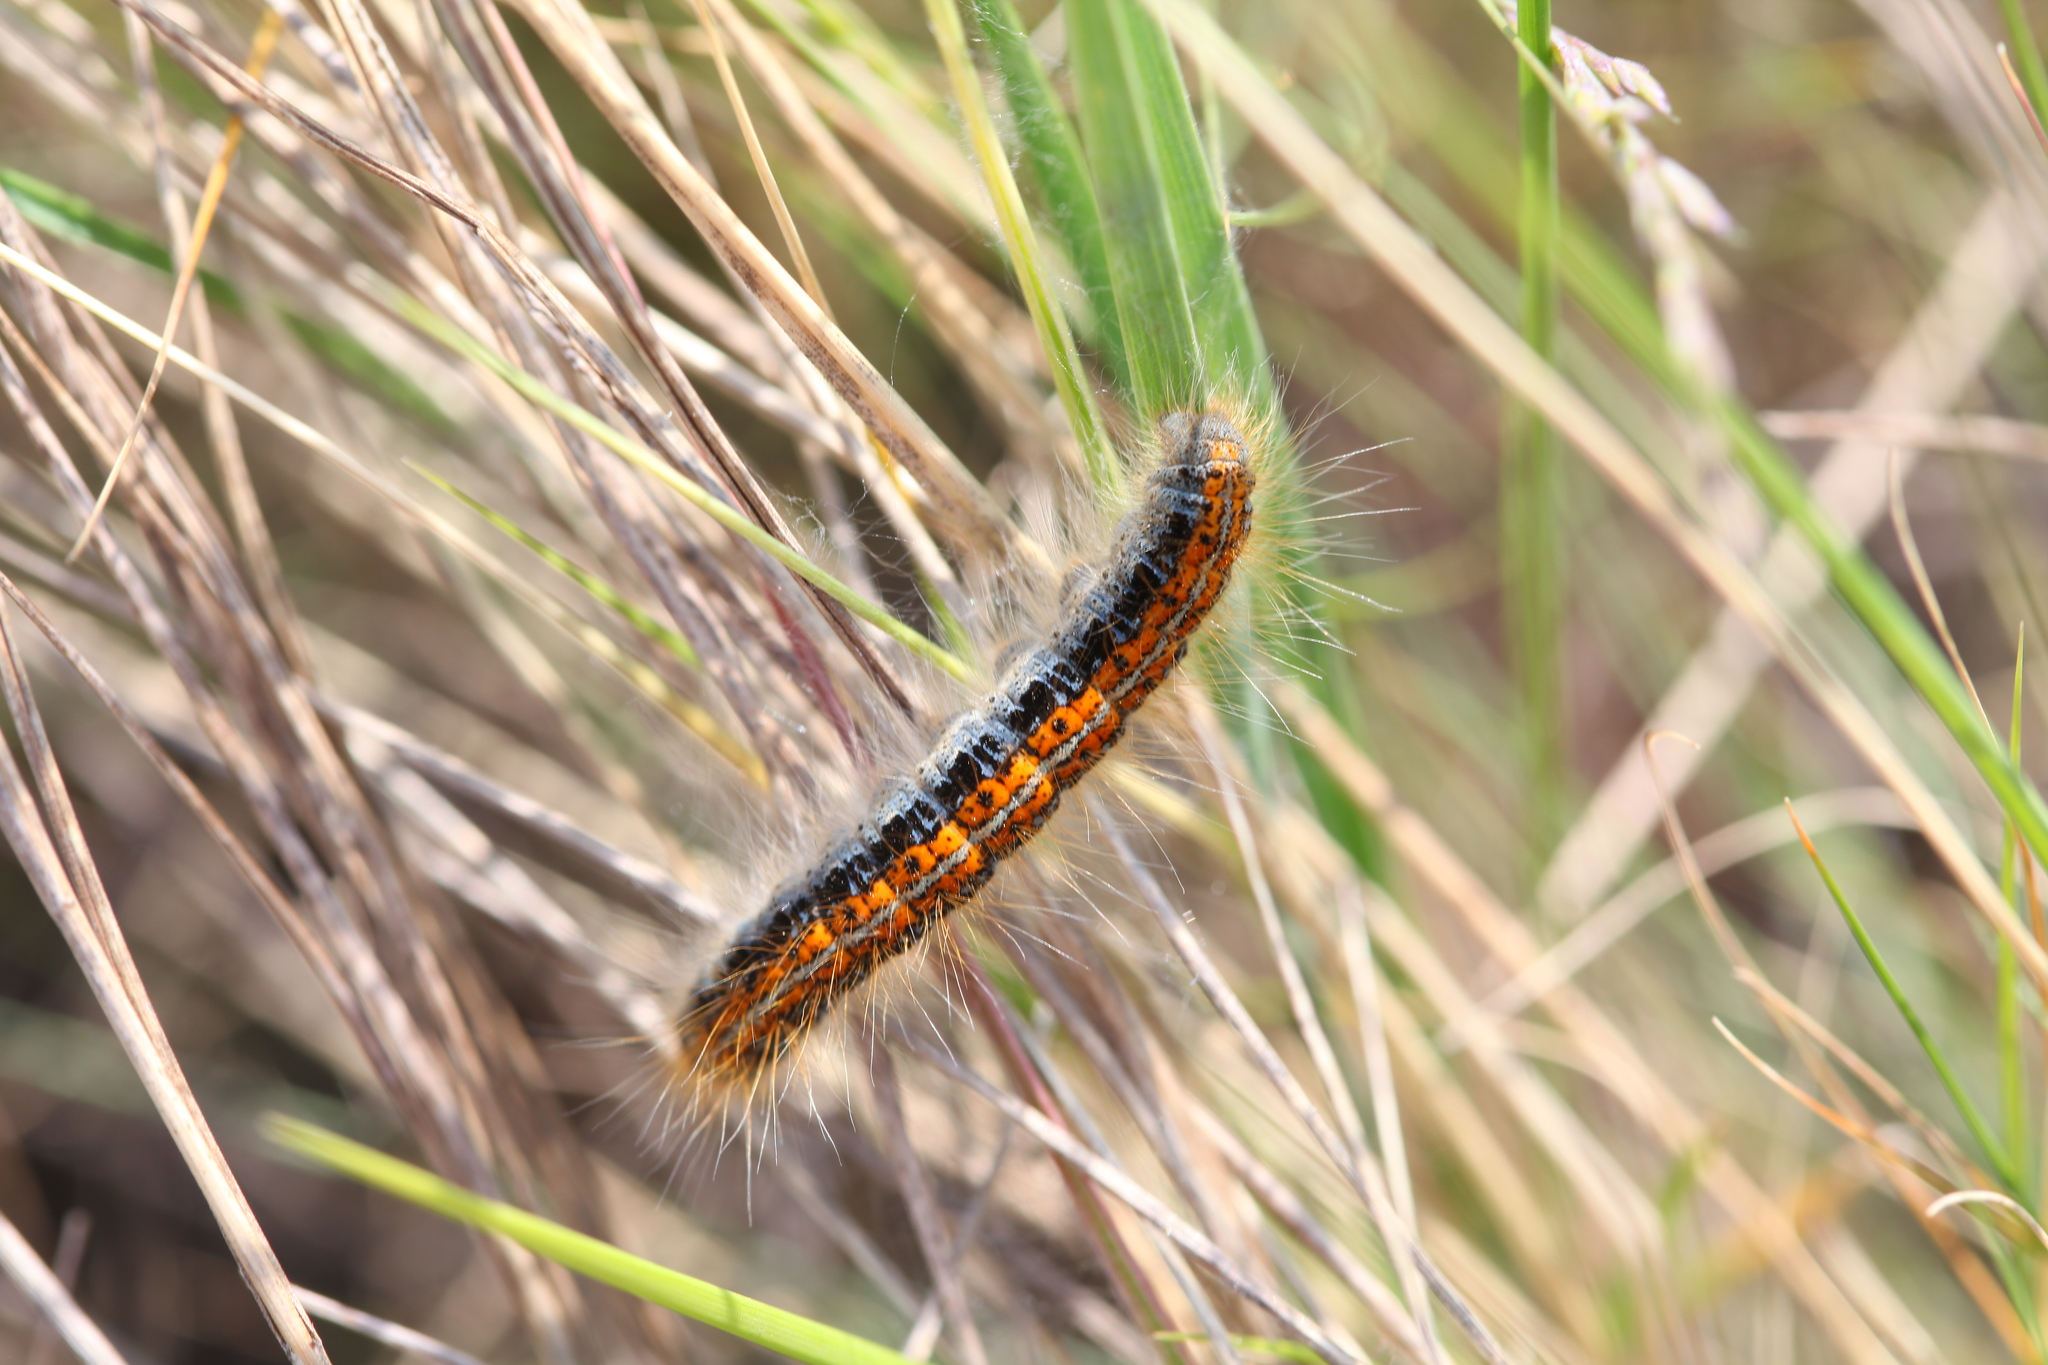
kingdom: Animalia
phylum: Arthropoda
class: Insecta
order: Lepidoptera
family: Lasiocampidae
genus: Malacosoma
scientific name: Malacosoma castrense
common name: Ground lackey
